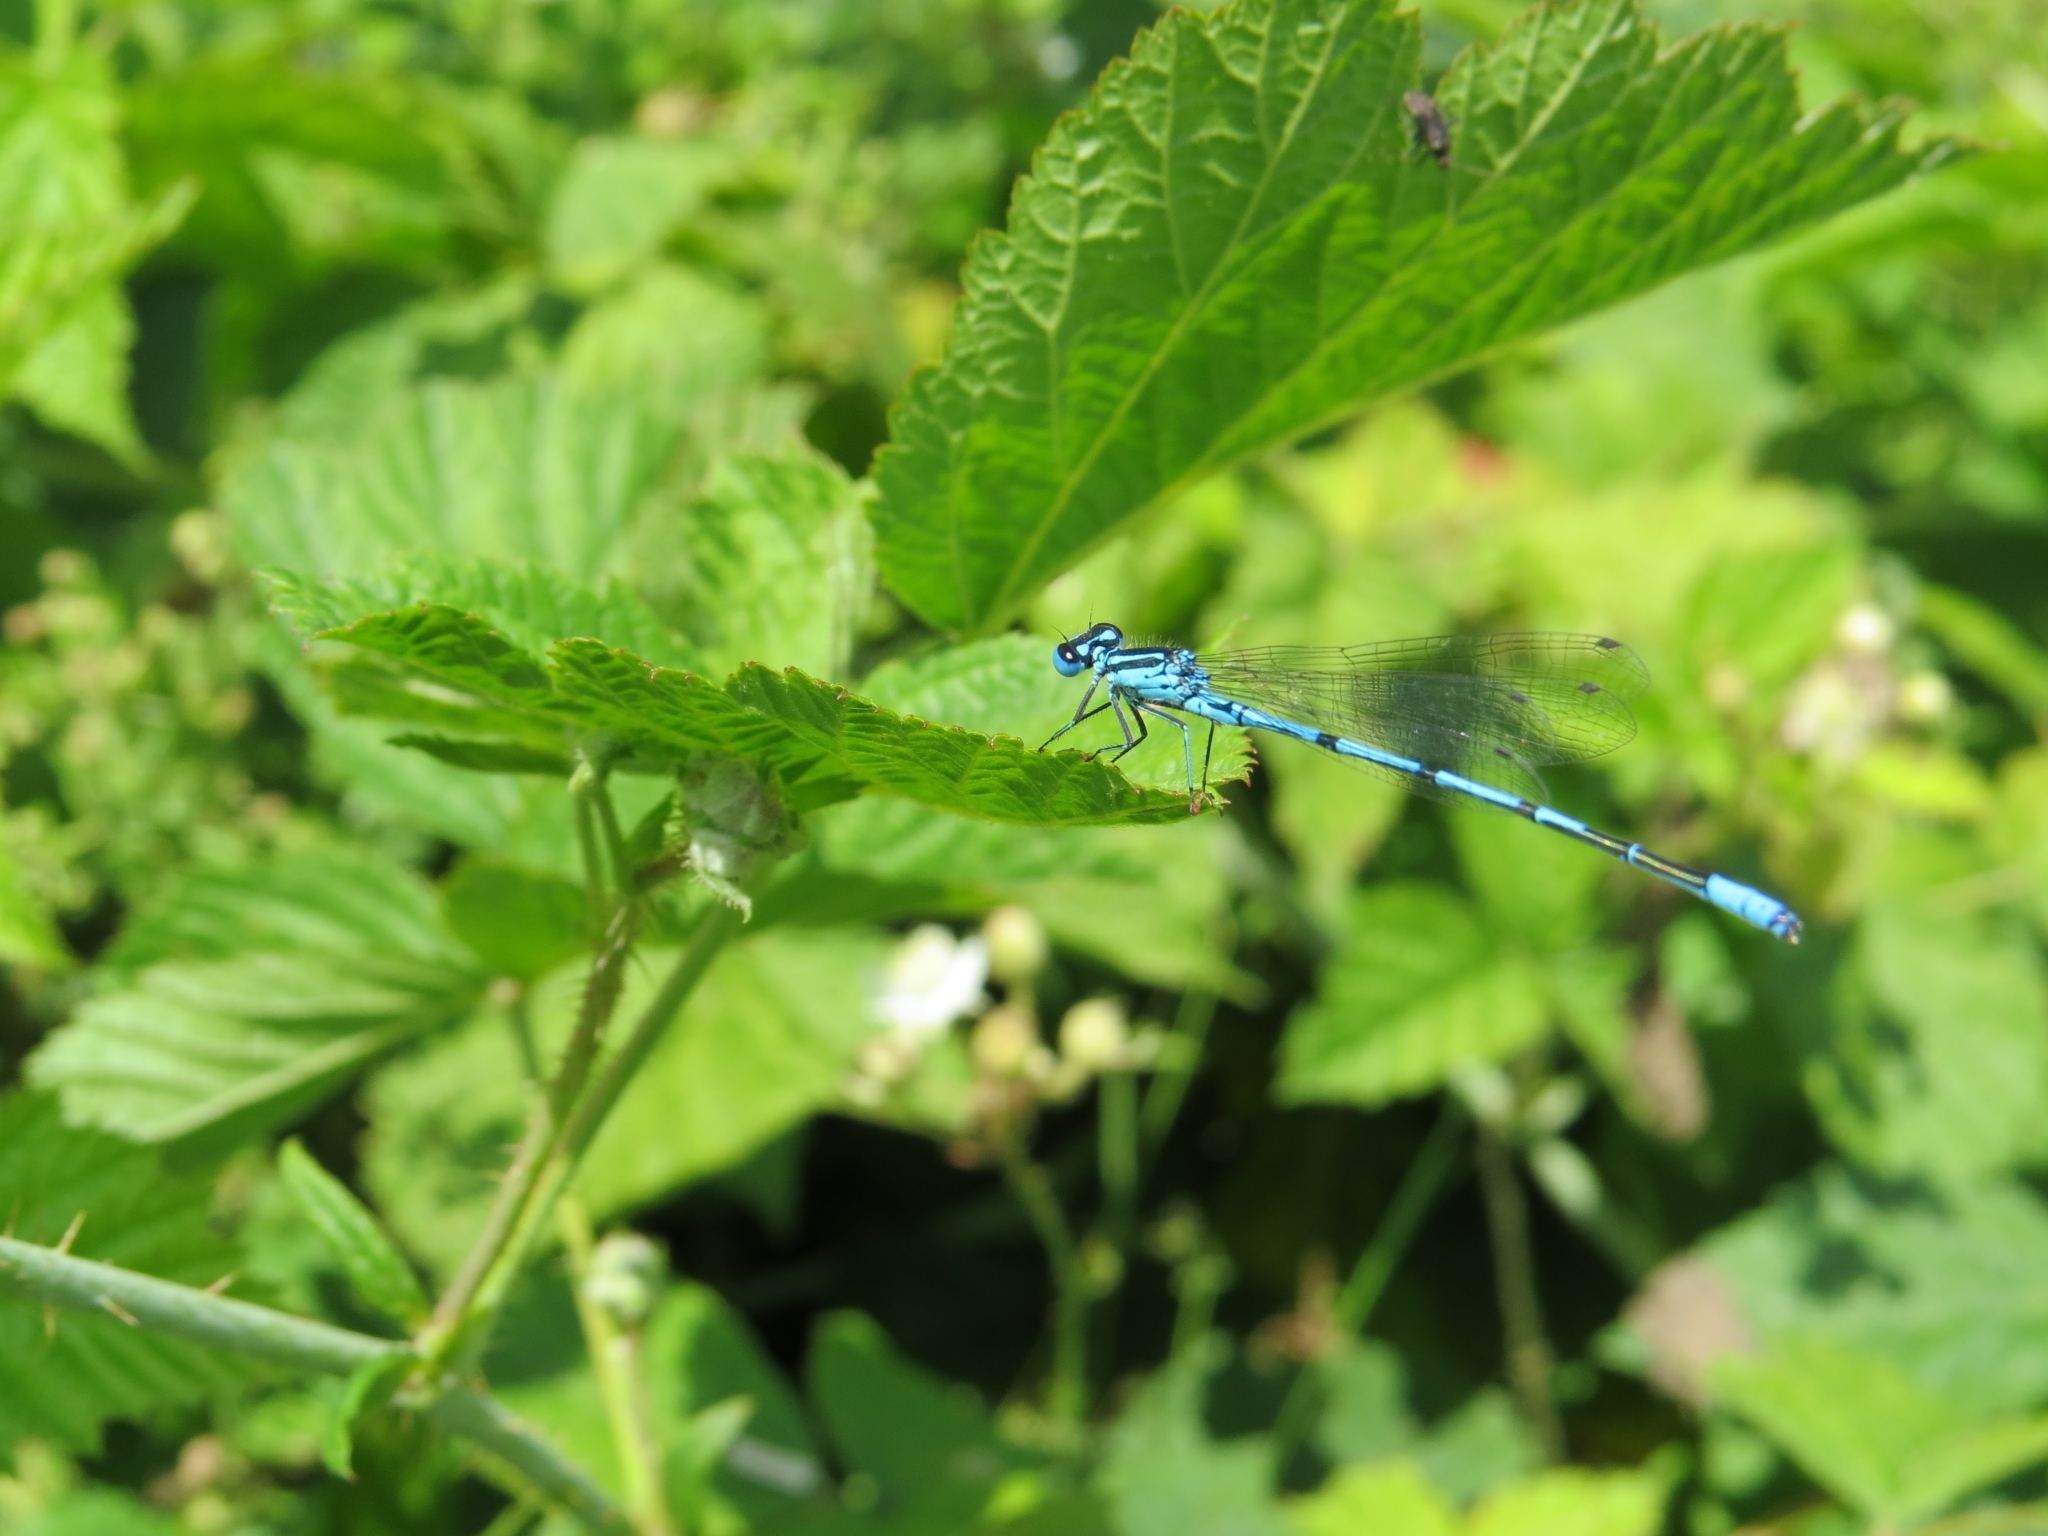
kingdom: Animalia
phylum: Arthropoda
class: Insecta
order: Odonata
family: Coenagrionidae
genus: Coenagrion
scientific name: Coenagrion puella
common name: Azure damselfly
